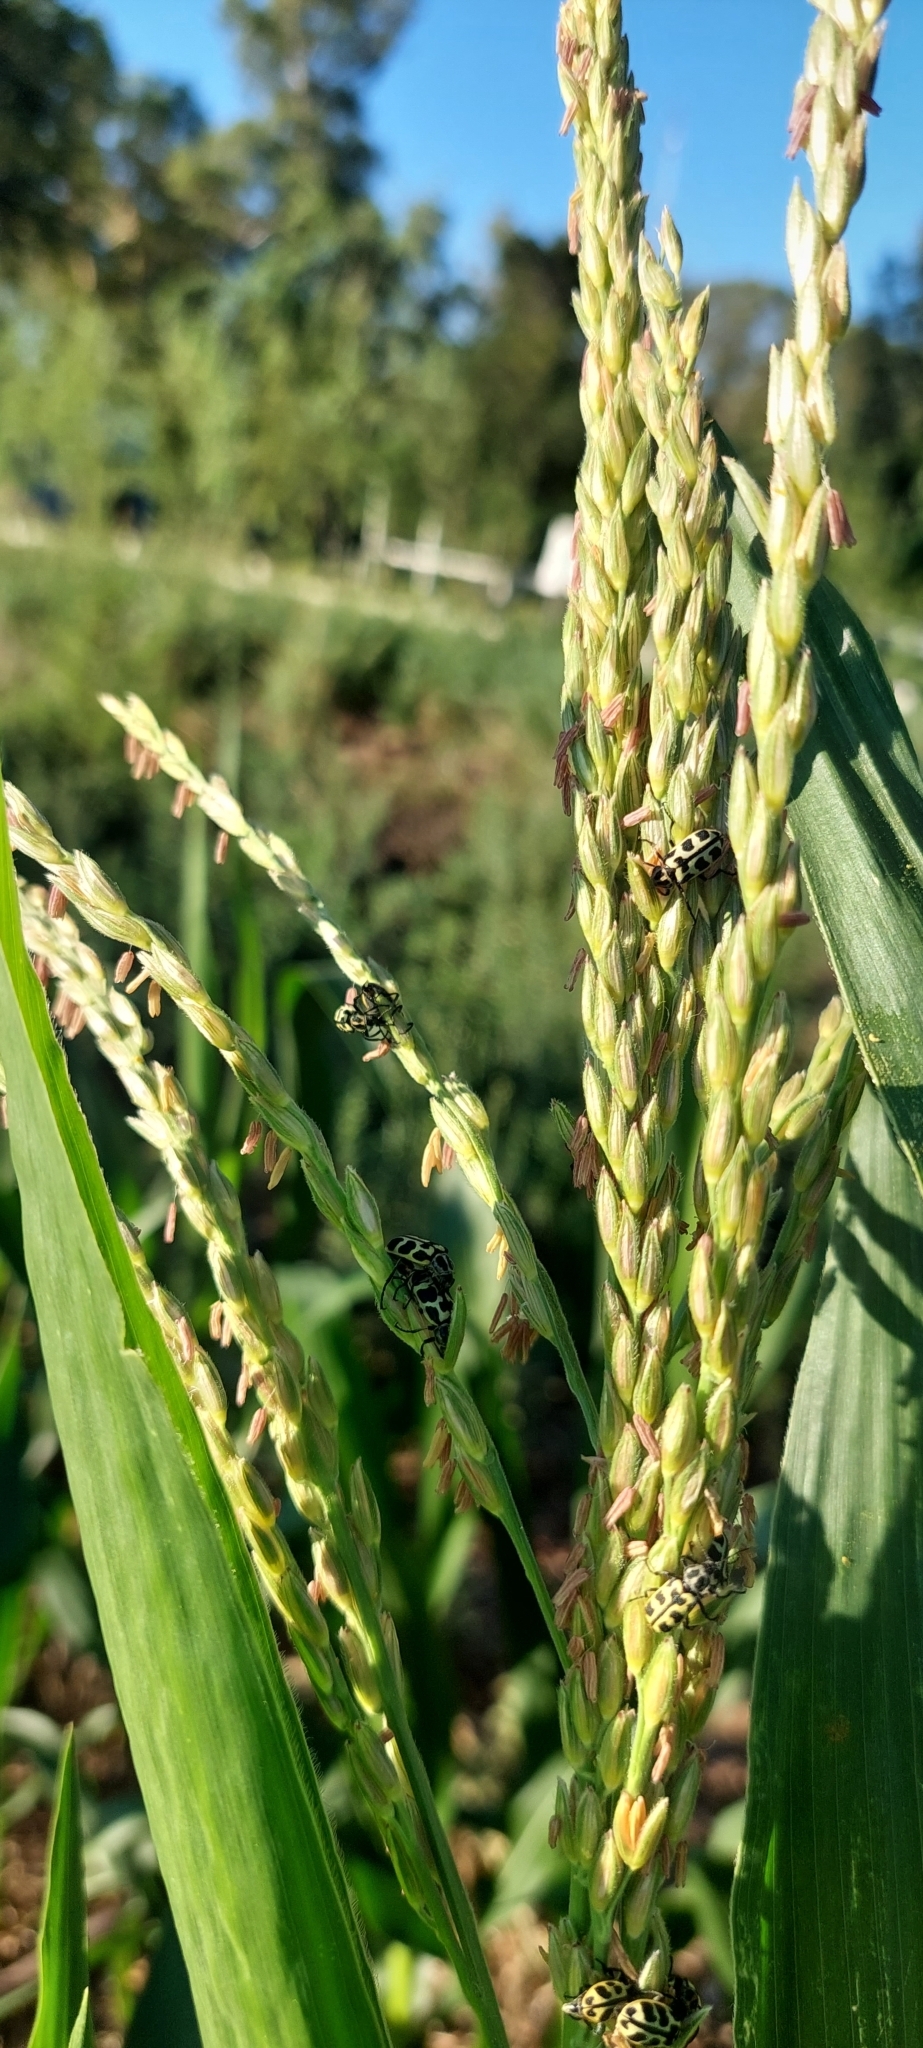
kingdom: Animalia
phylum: Arthropoda
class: Insecta
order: Coleoptera
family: Melyridae
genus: Astylus
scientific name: Astylus atromaculatus
